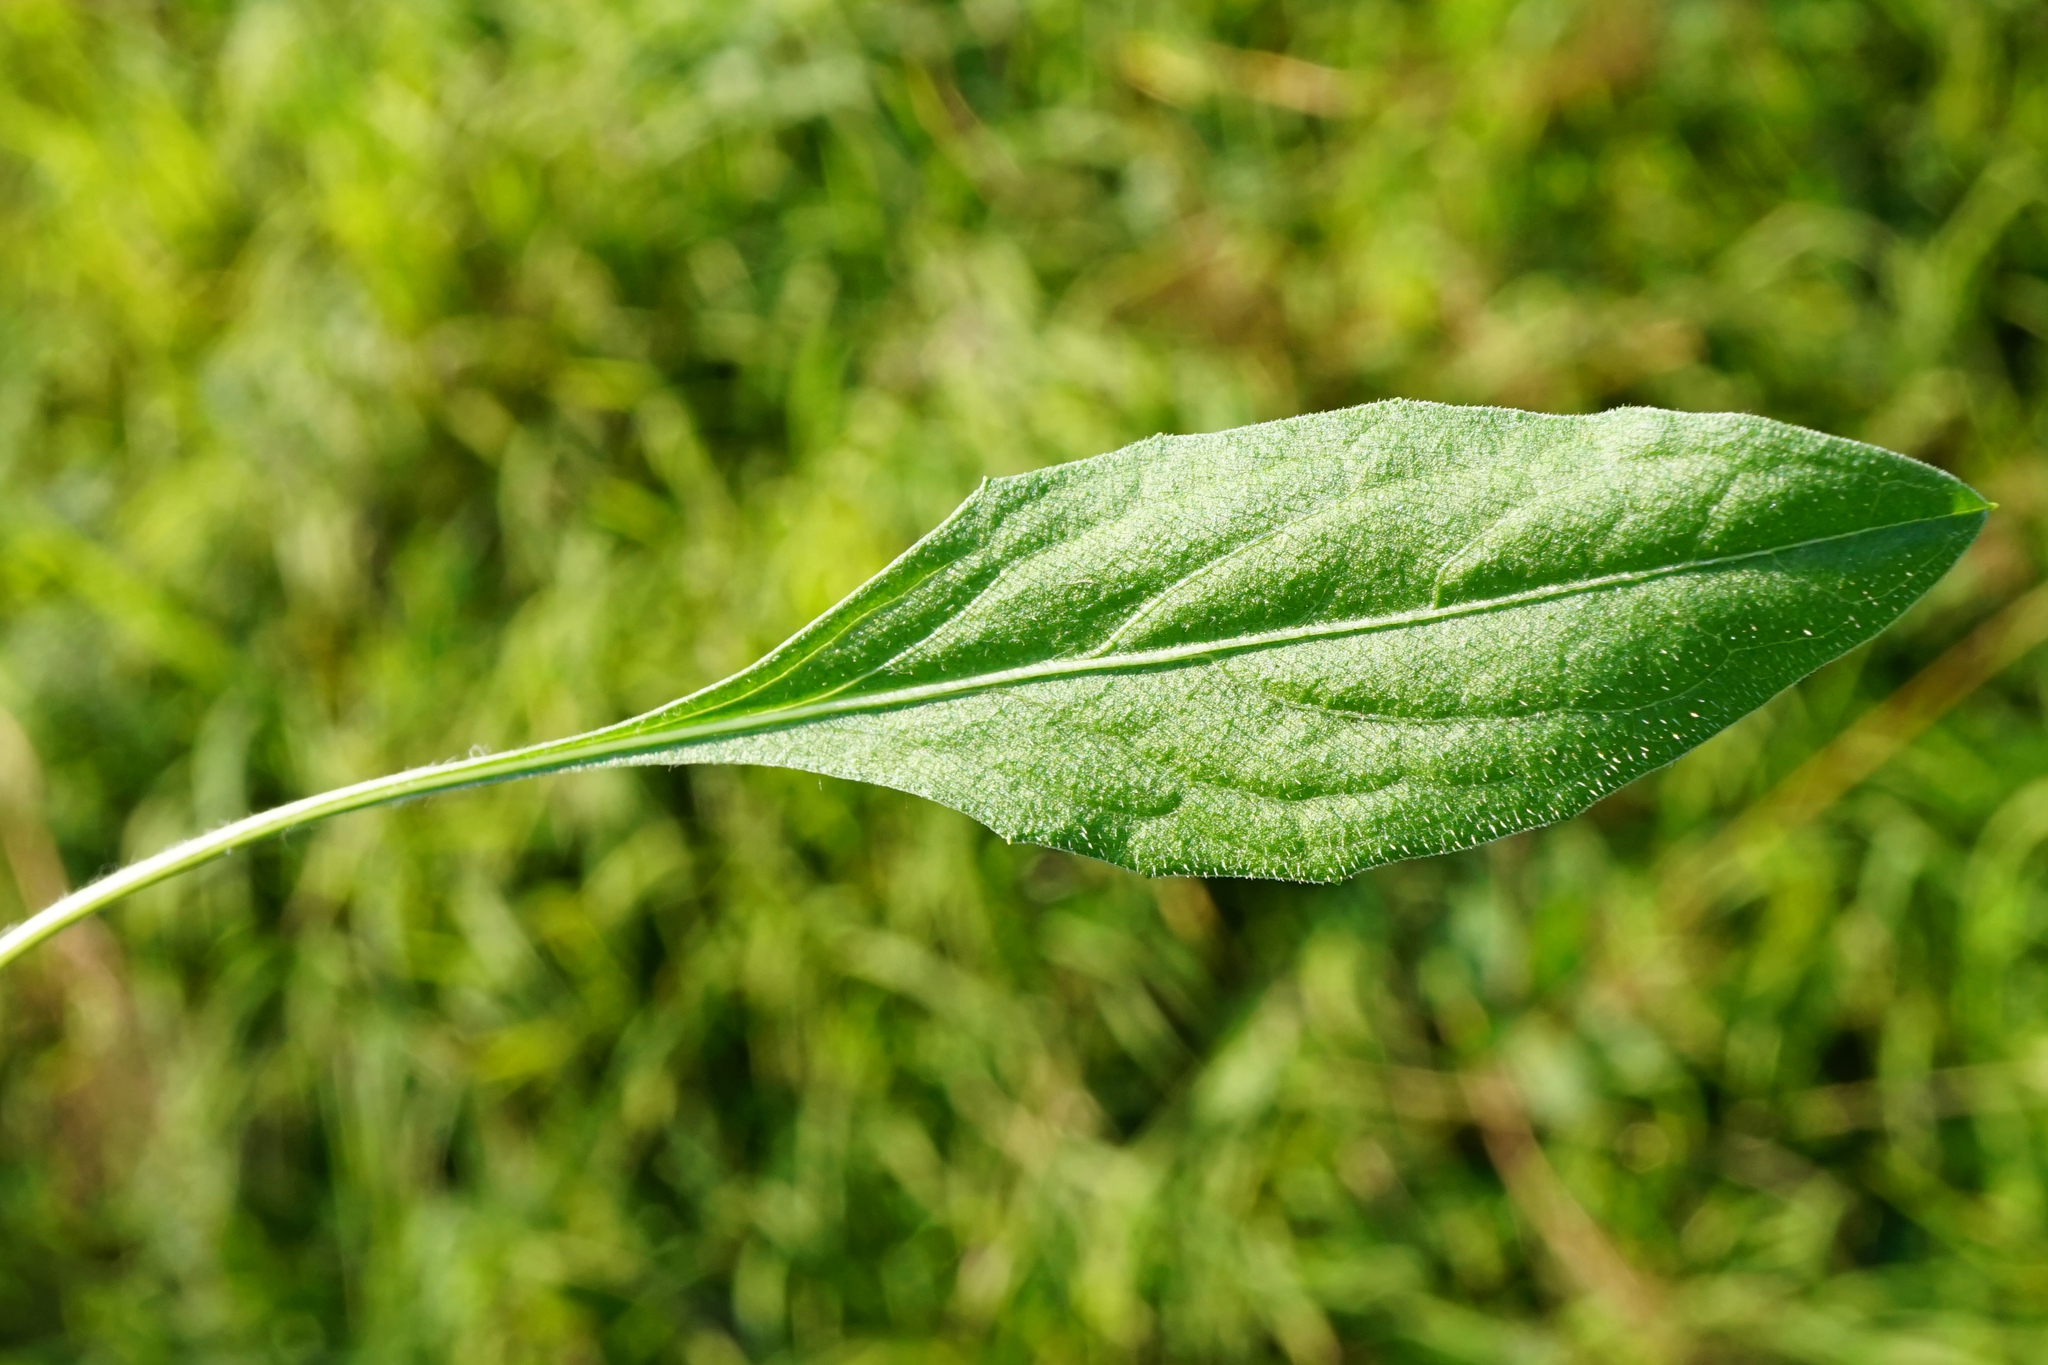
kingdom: Plantae
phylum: Tracheophyta
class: Magnoliopsida
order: Asterales
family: Asteraceae
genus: Centaurea
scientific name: Centaurea jacea
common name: Brown knapweed
